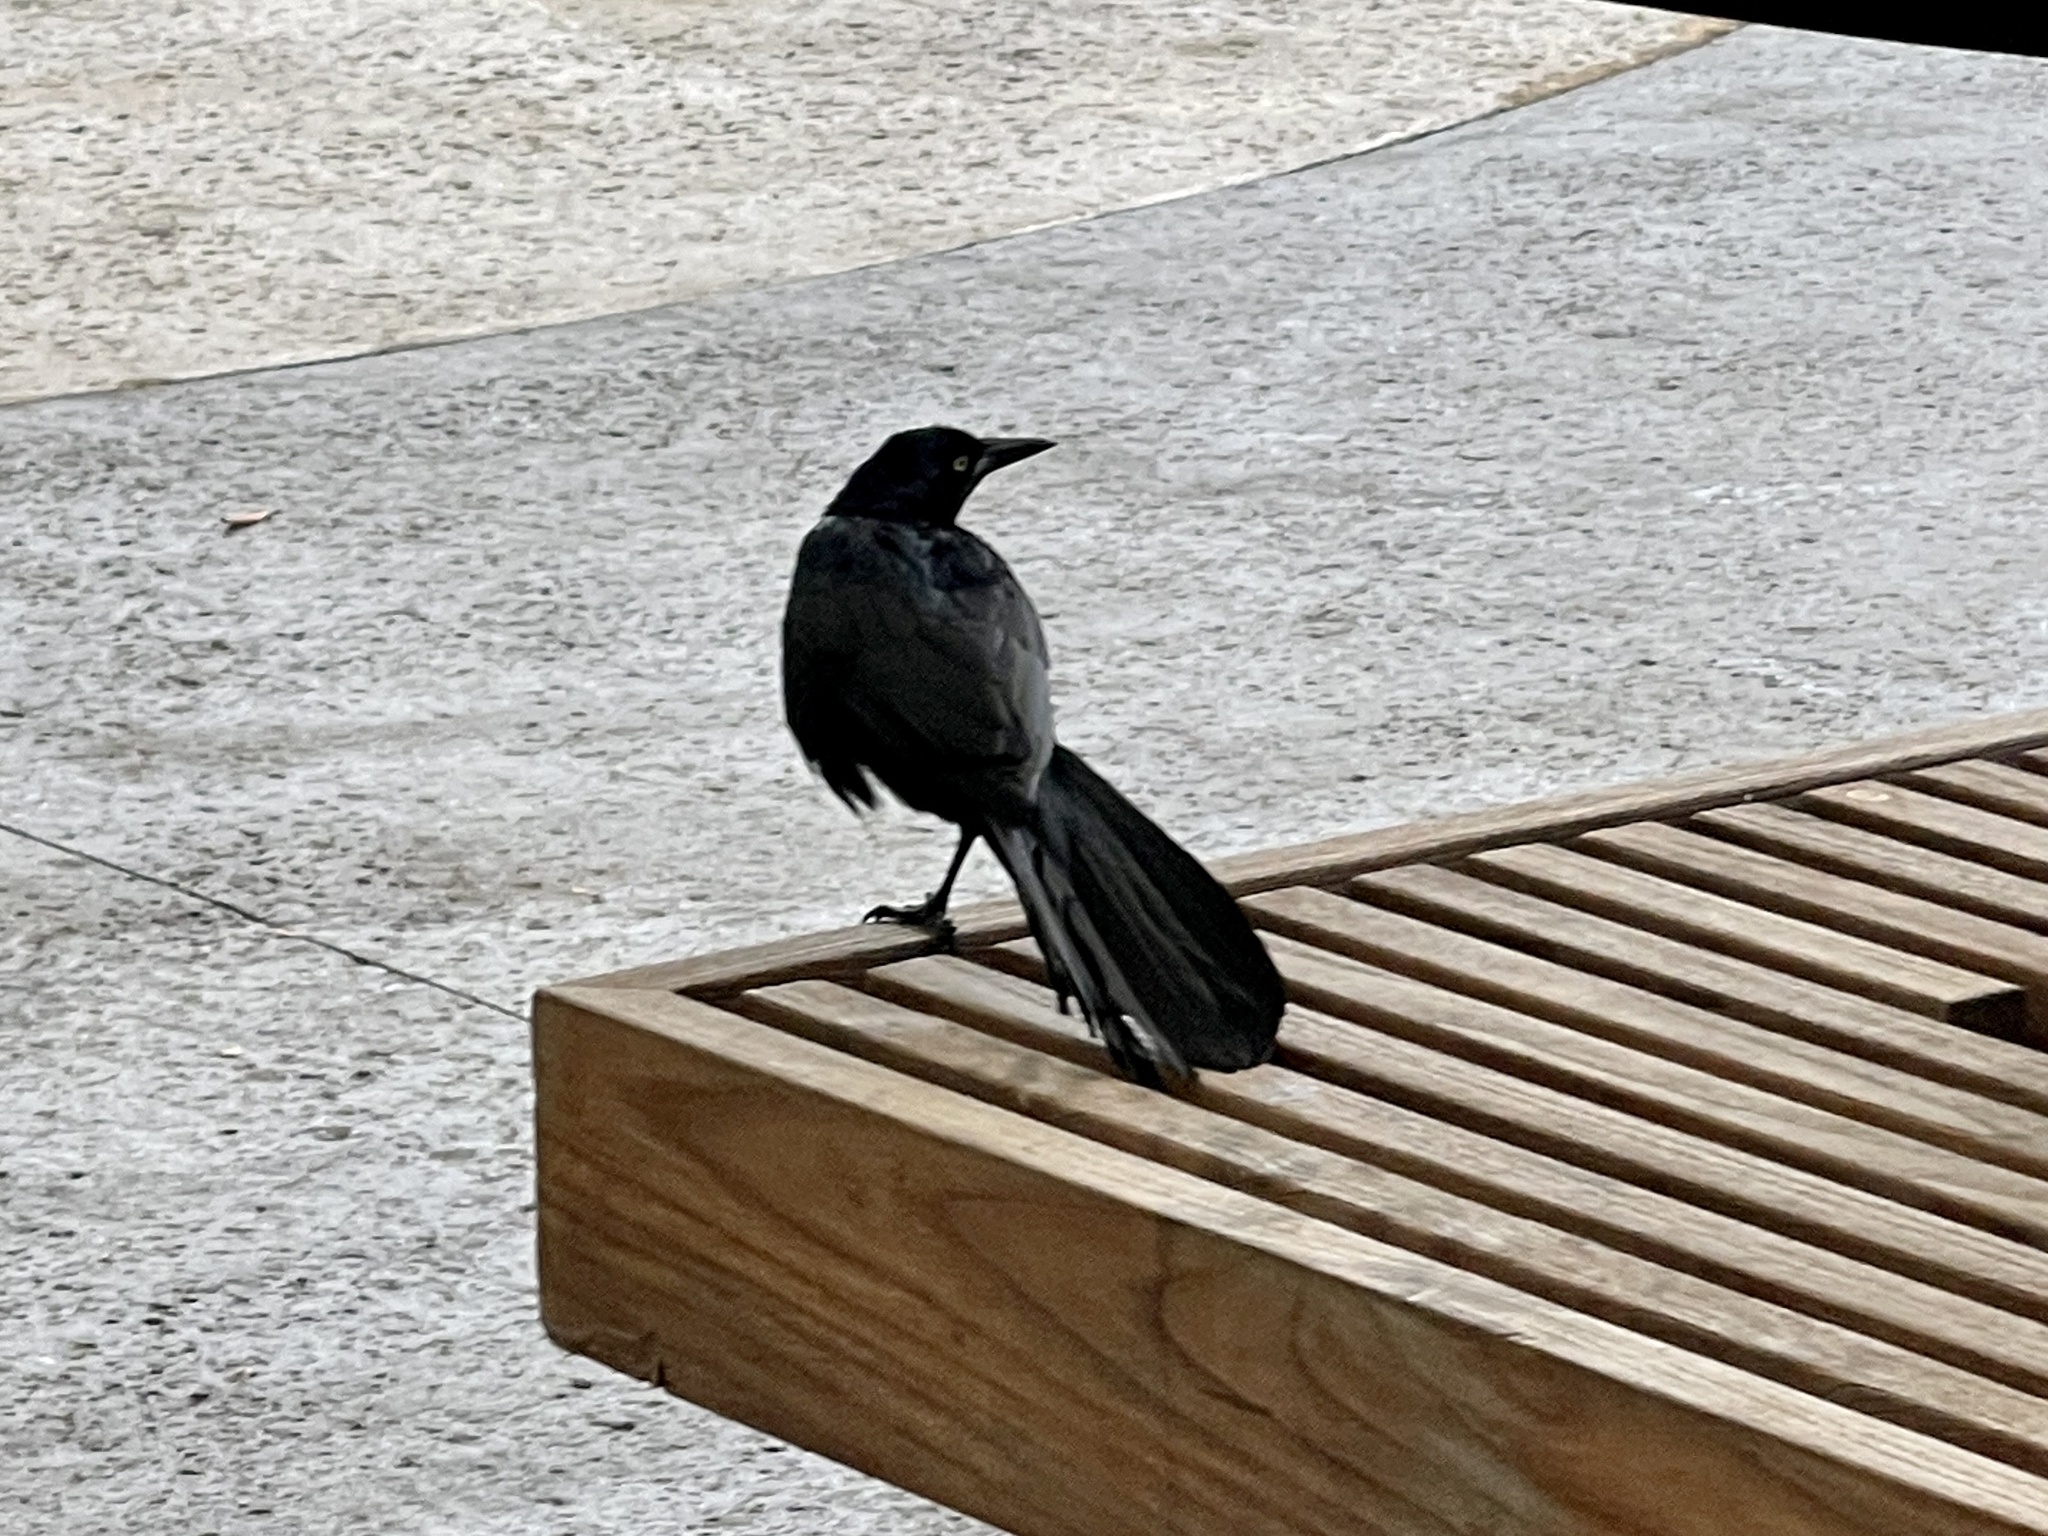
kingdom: Animalia
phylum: Chordata
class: Aves
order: Passeriformes
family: Icteridae
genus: Quiscalus
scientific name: Quiscalus mexicanus
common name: Great-tailed grackle
